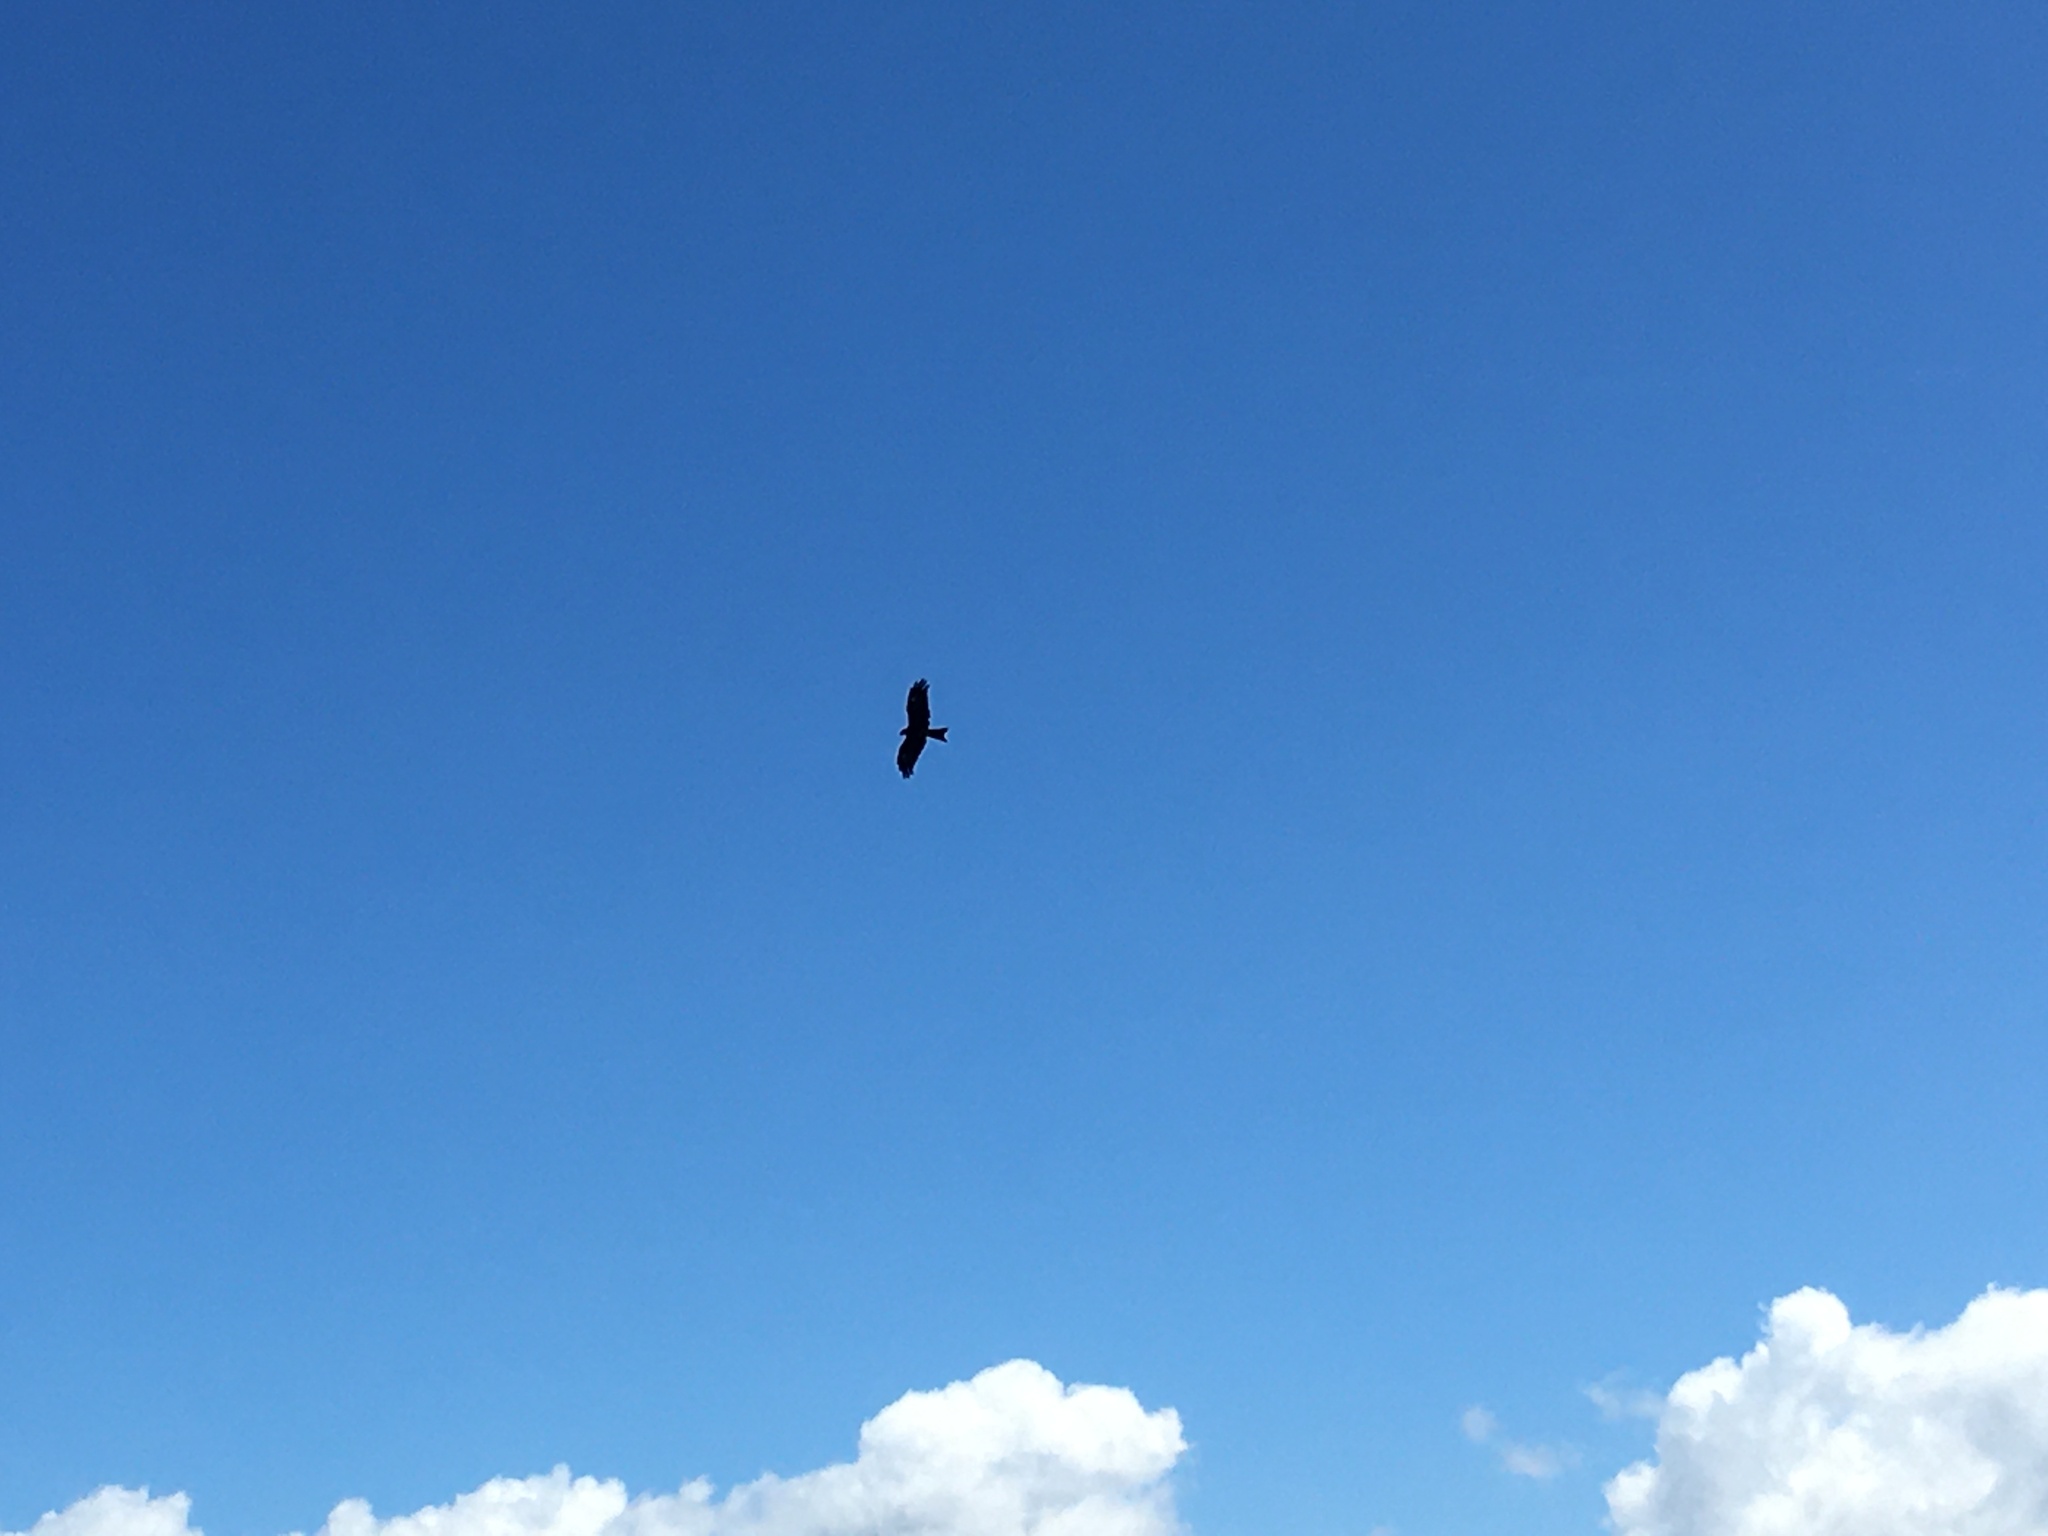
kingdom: Animalia
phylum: Chordata
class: Aves
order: Accipitriformes
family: Accipitridae
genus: Milvus
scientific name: Milvus migrans
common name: Black kite
